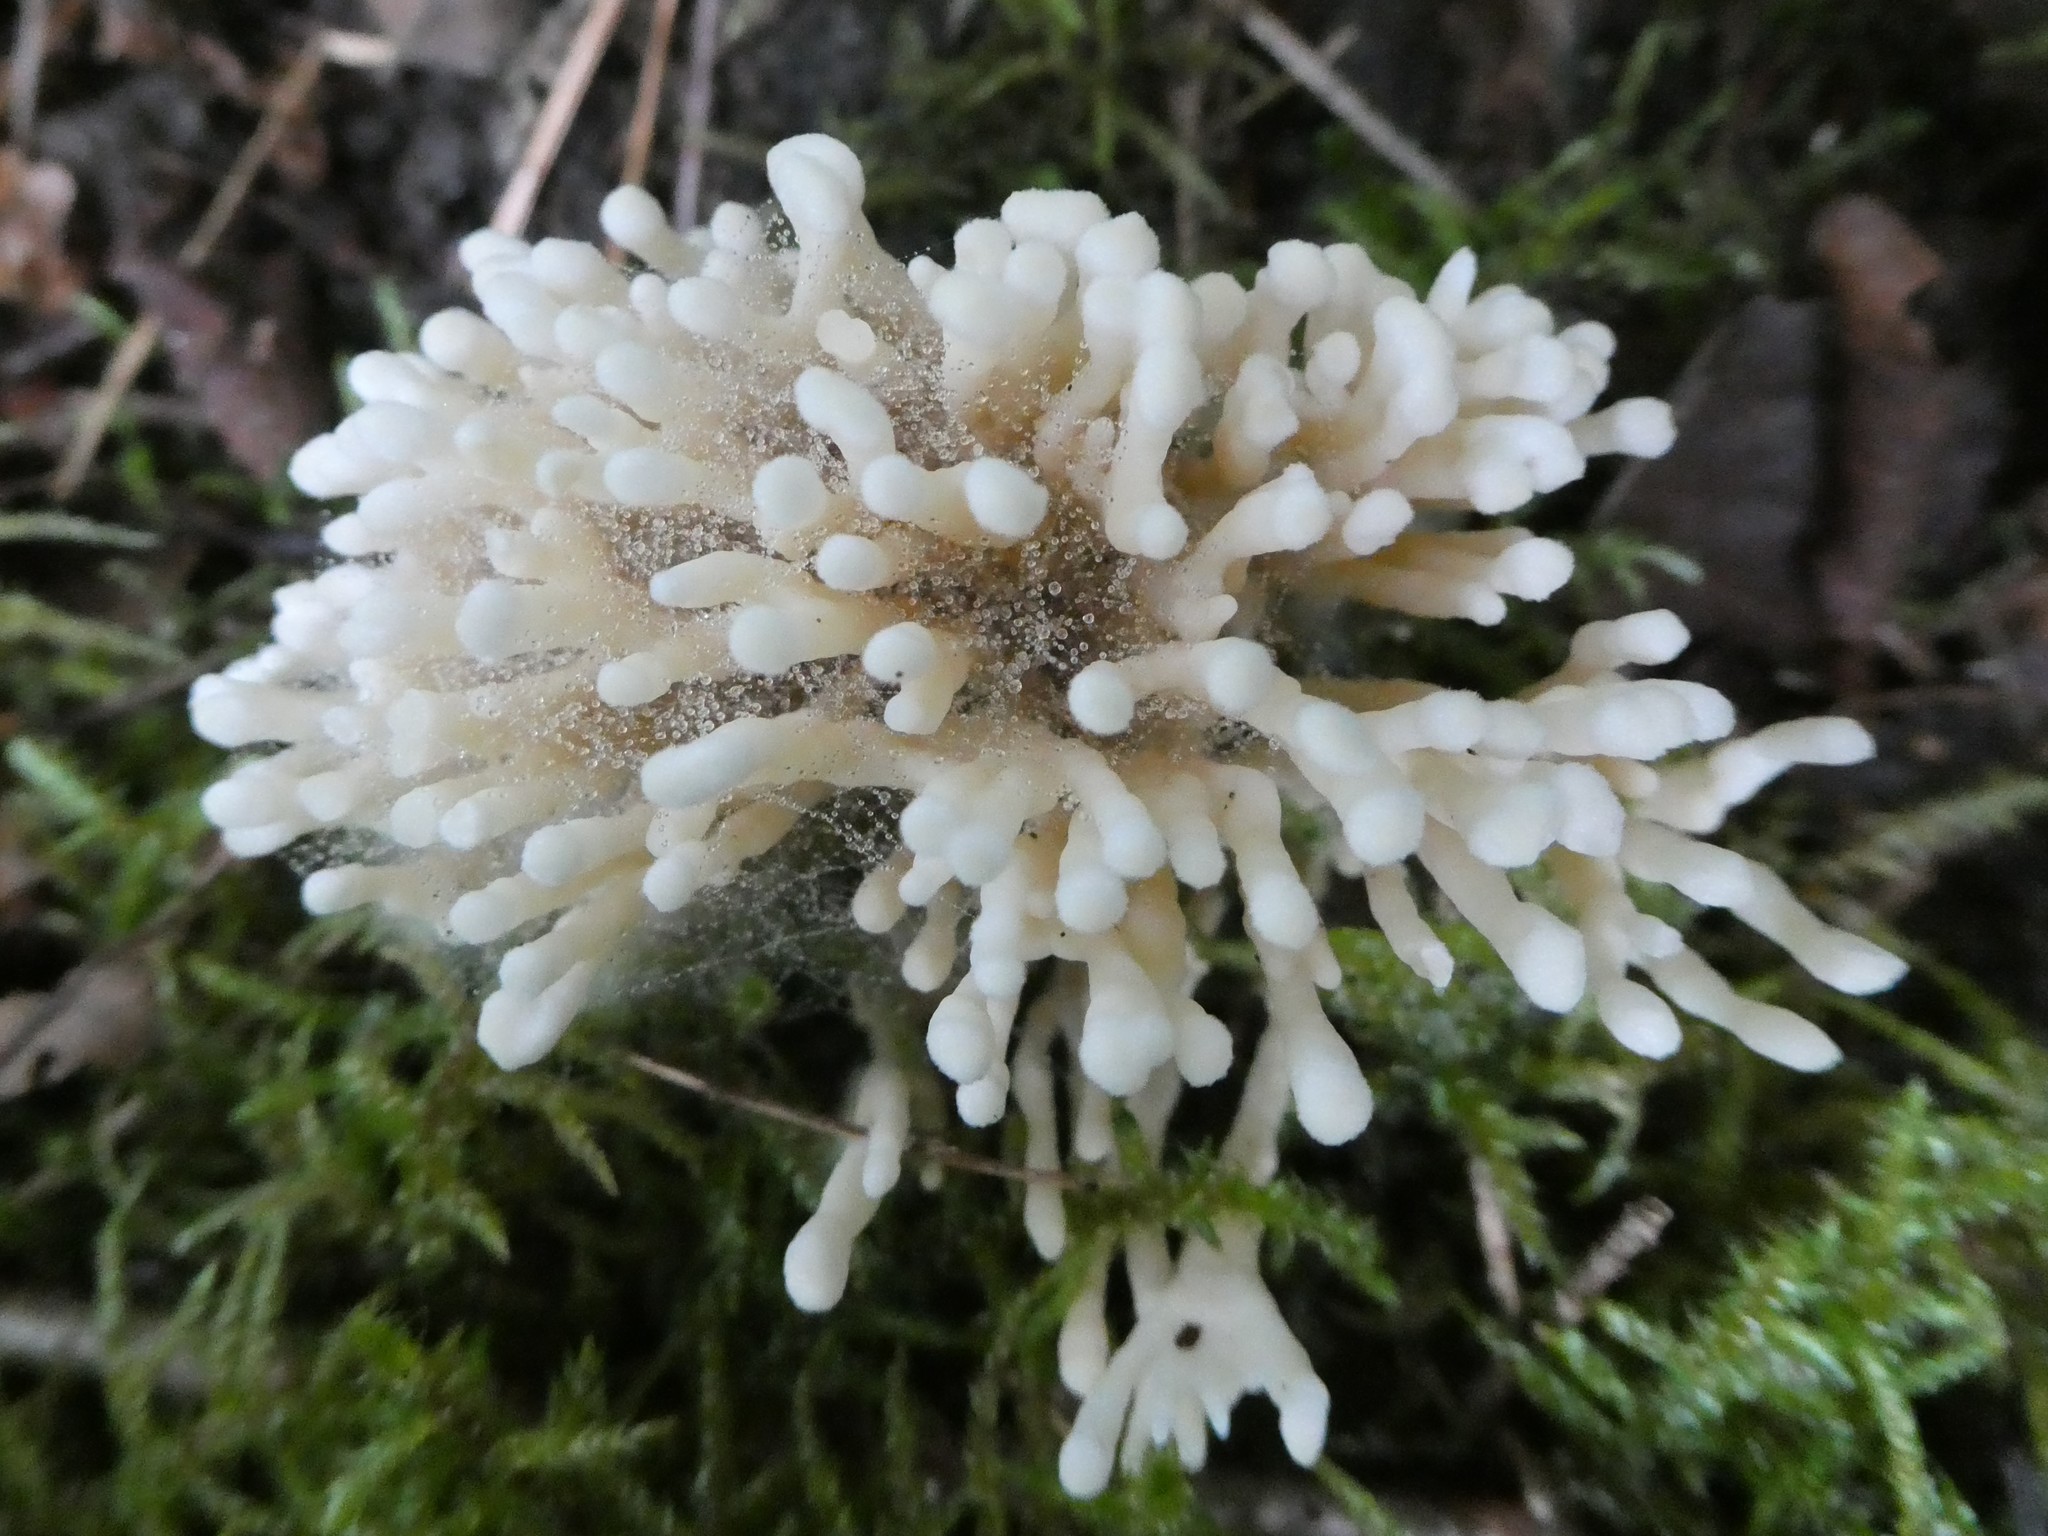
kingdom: Fungi
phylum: Basidiomycota
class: Agaricomycetes
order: Sebacinales
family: Sebacinaceae
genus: Sebacina
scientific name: Sebacina schweinitzii
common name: Jellied false coral fungus
